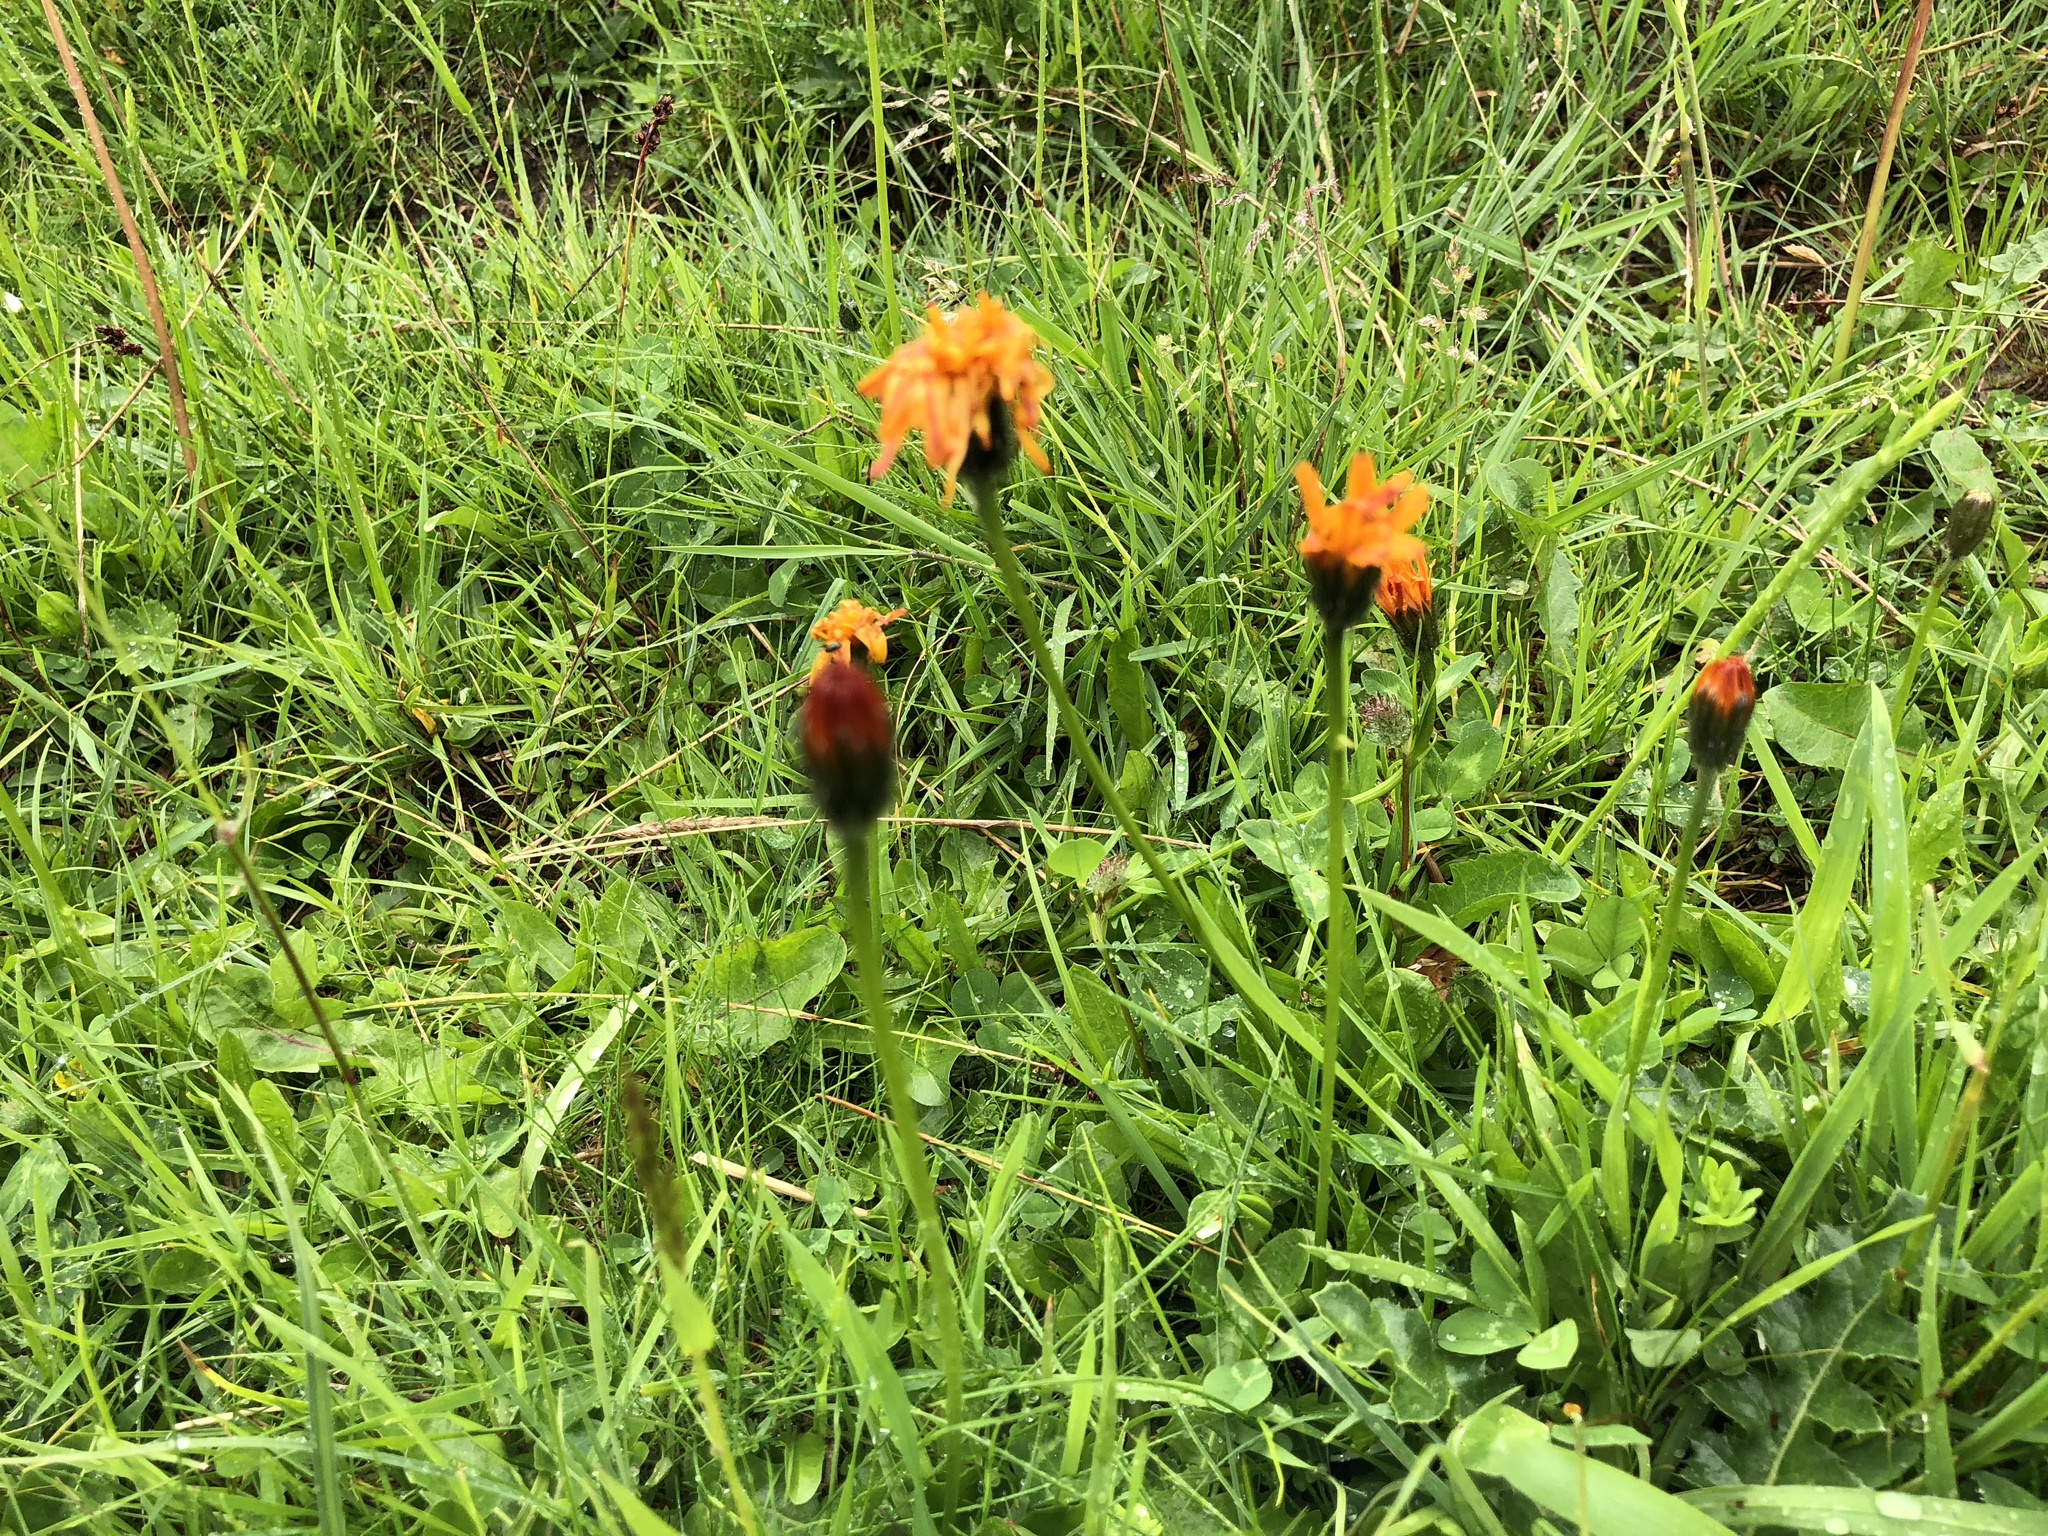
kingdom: Plantae
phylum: Tracheophyta
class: Magnoliopsida
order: Asterales
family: Asteraceae
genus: Crepis
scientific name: Crepis aurea
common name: Golden hawk's-beard
